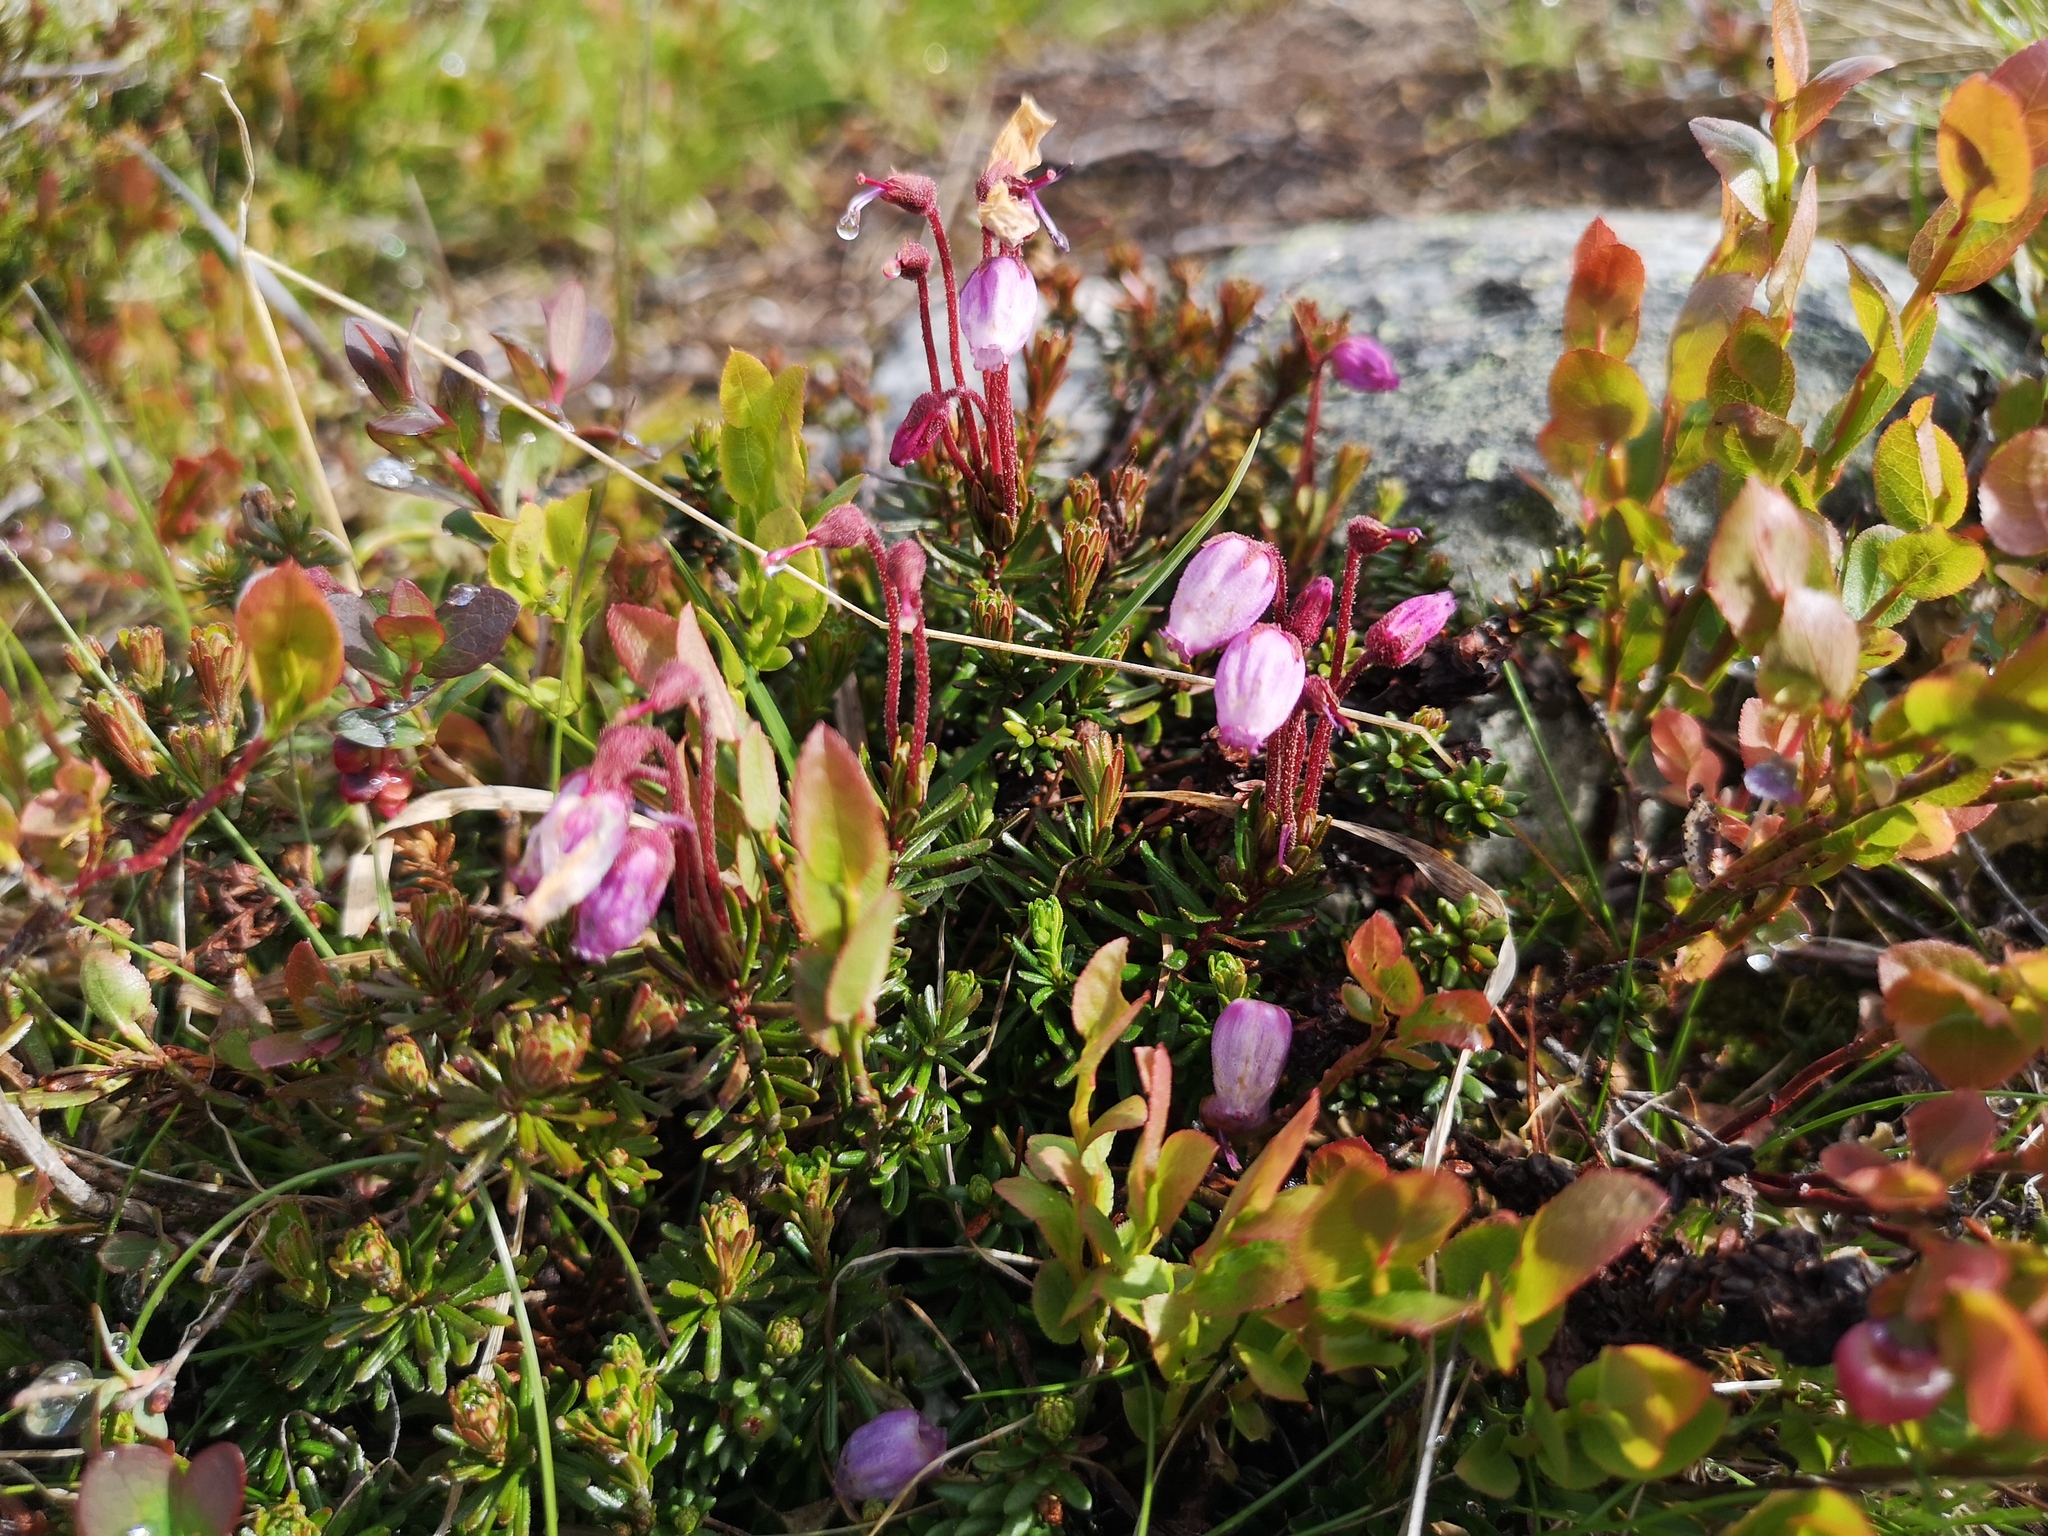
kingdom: Plantae
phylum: Tracheophyta
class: Magnoliopsida
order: Ericales
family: Ericaceae
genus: Phyllodoce
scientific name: Phyllodoce caerulea
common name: Blue heath
